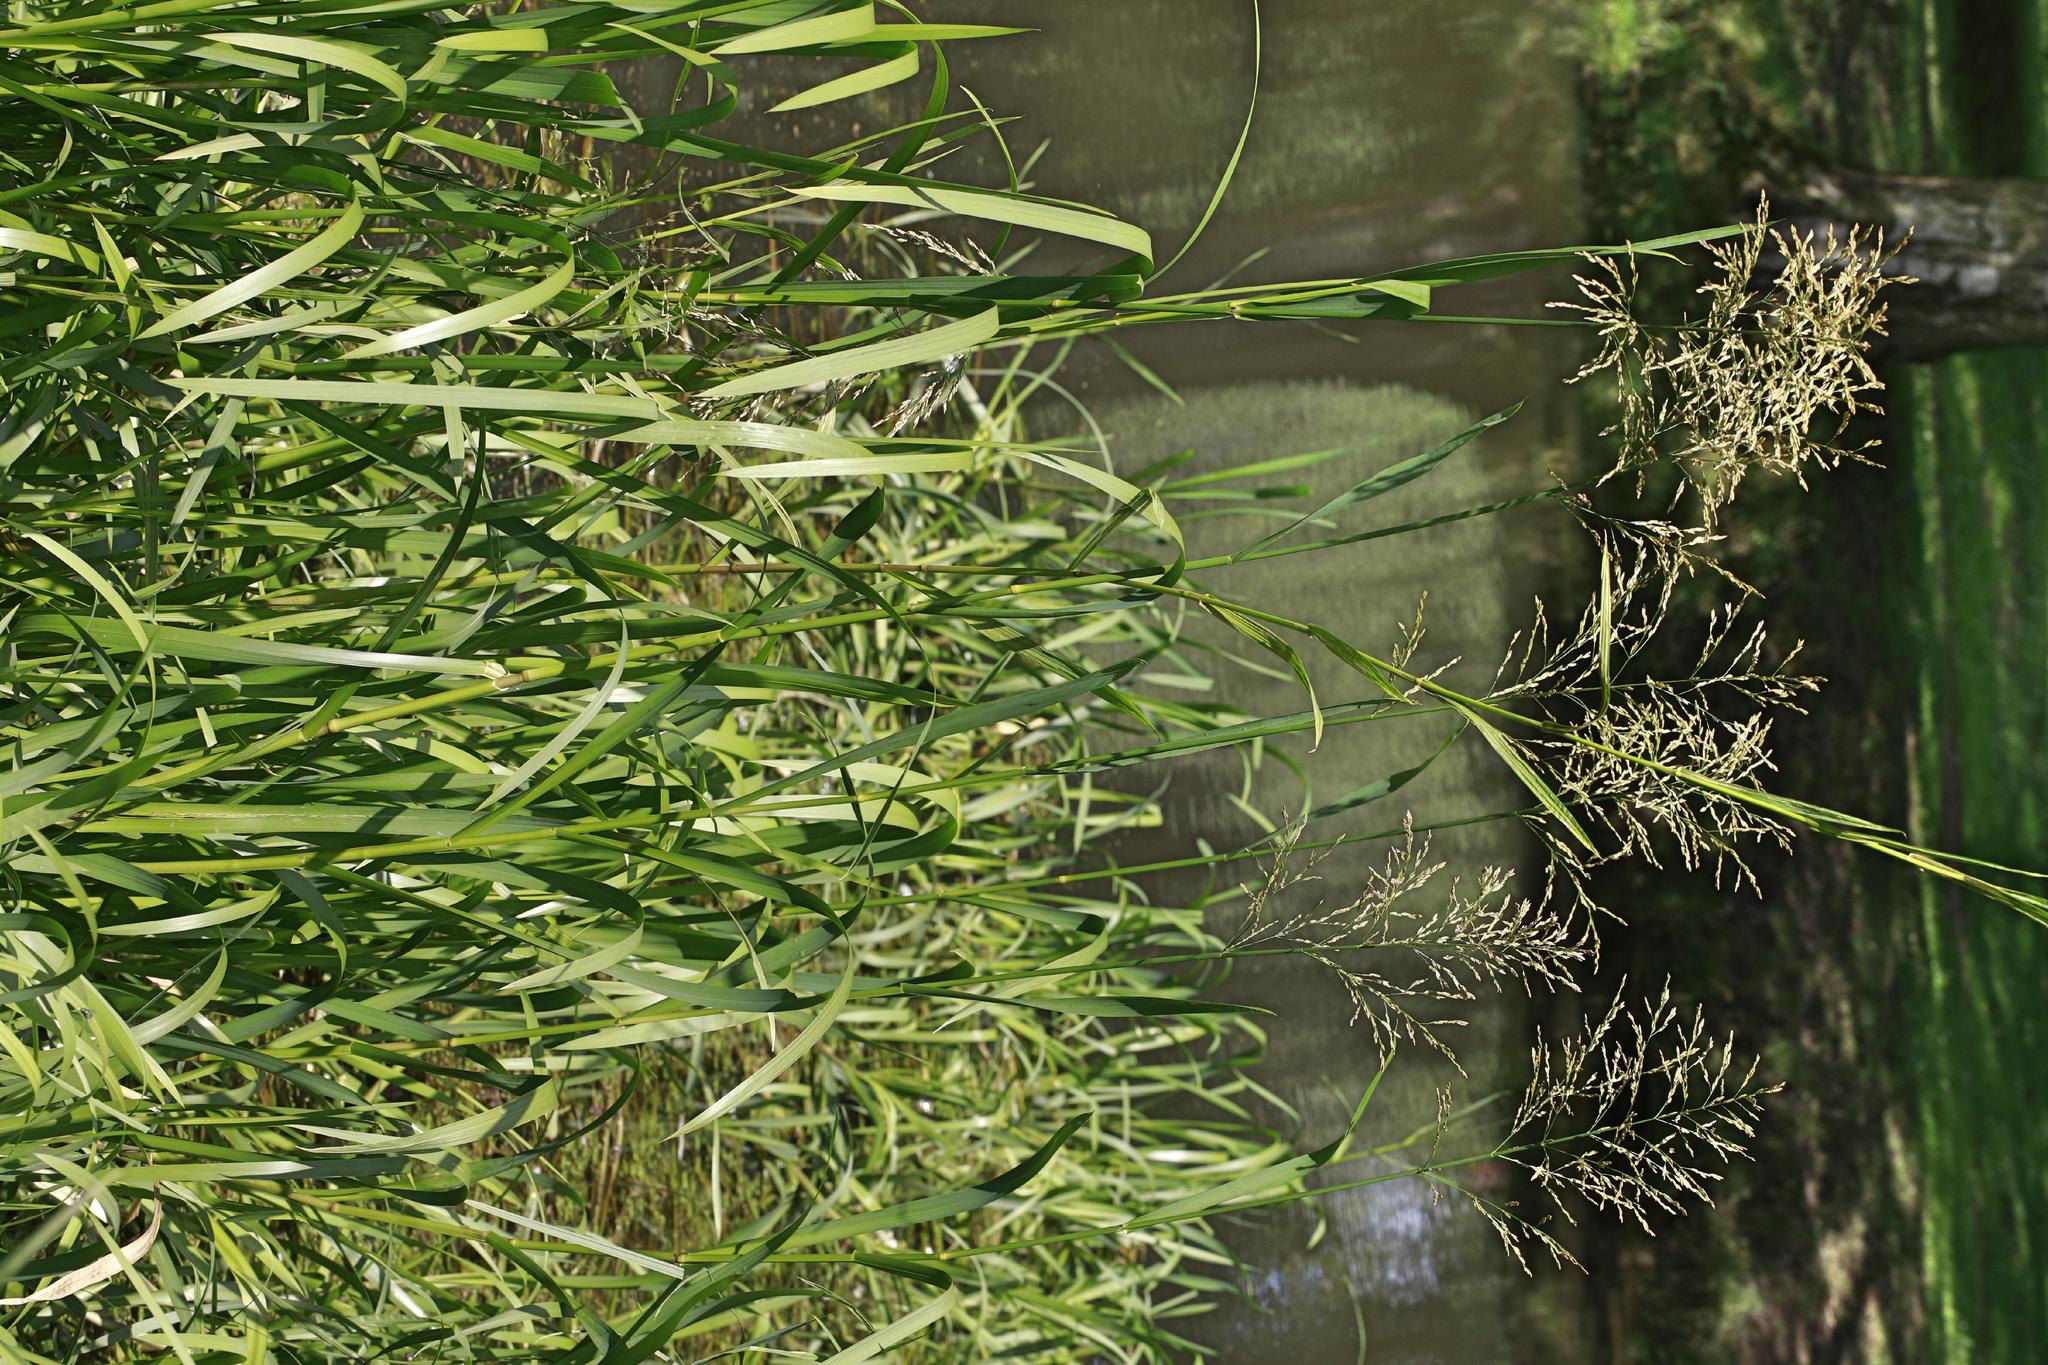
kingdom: Plantae
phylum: Tracheophyta
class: Liliopsida
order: Poales
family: Poaceae
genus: Glyceria
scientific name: Glyceria maxima
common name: Reed mannagrass
